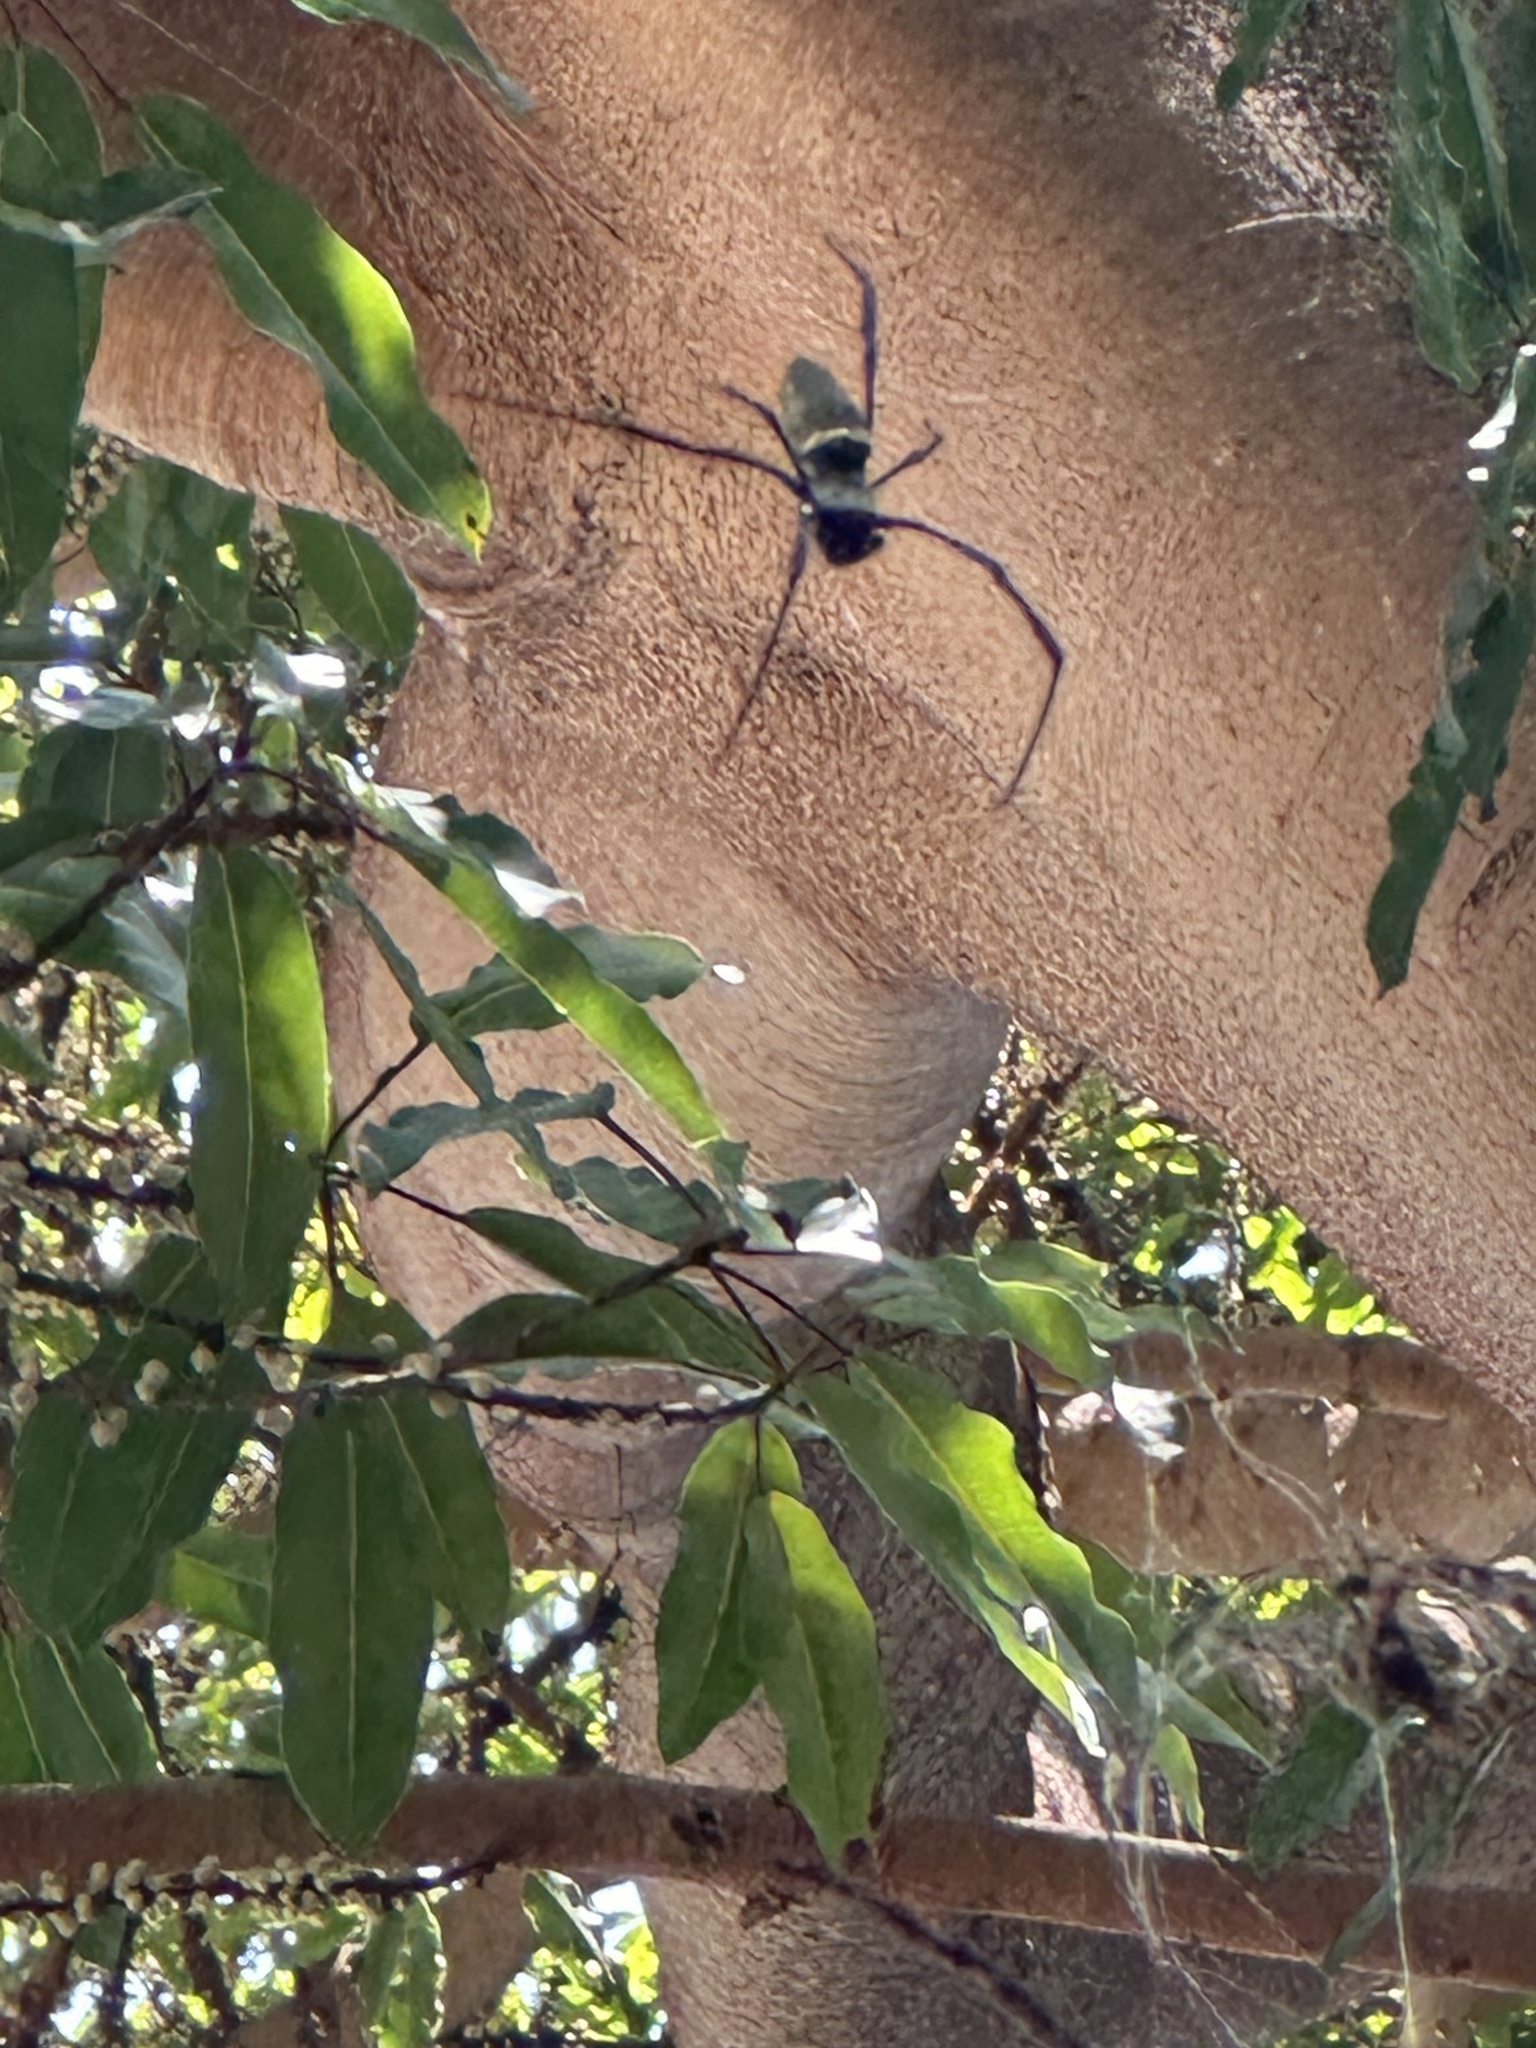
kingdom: Animalia
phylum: Arthropoda
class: Arachnida
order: Araneae
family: Araneidae
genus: Nephila
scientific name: Nephila pilipes
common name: Giant golden orb weaver
